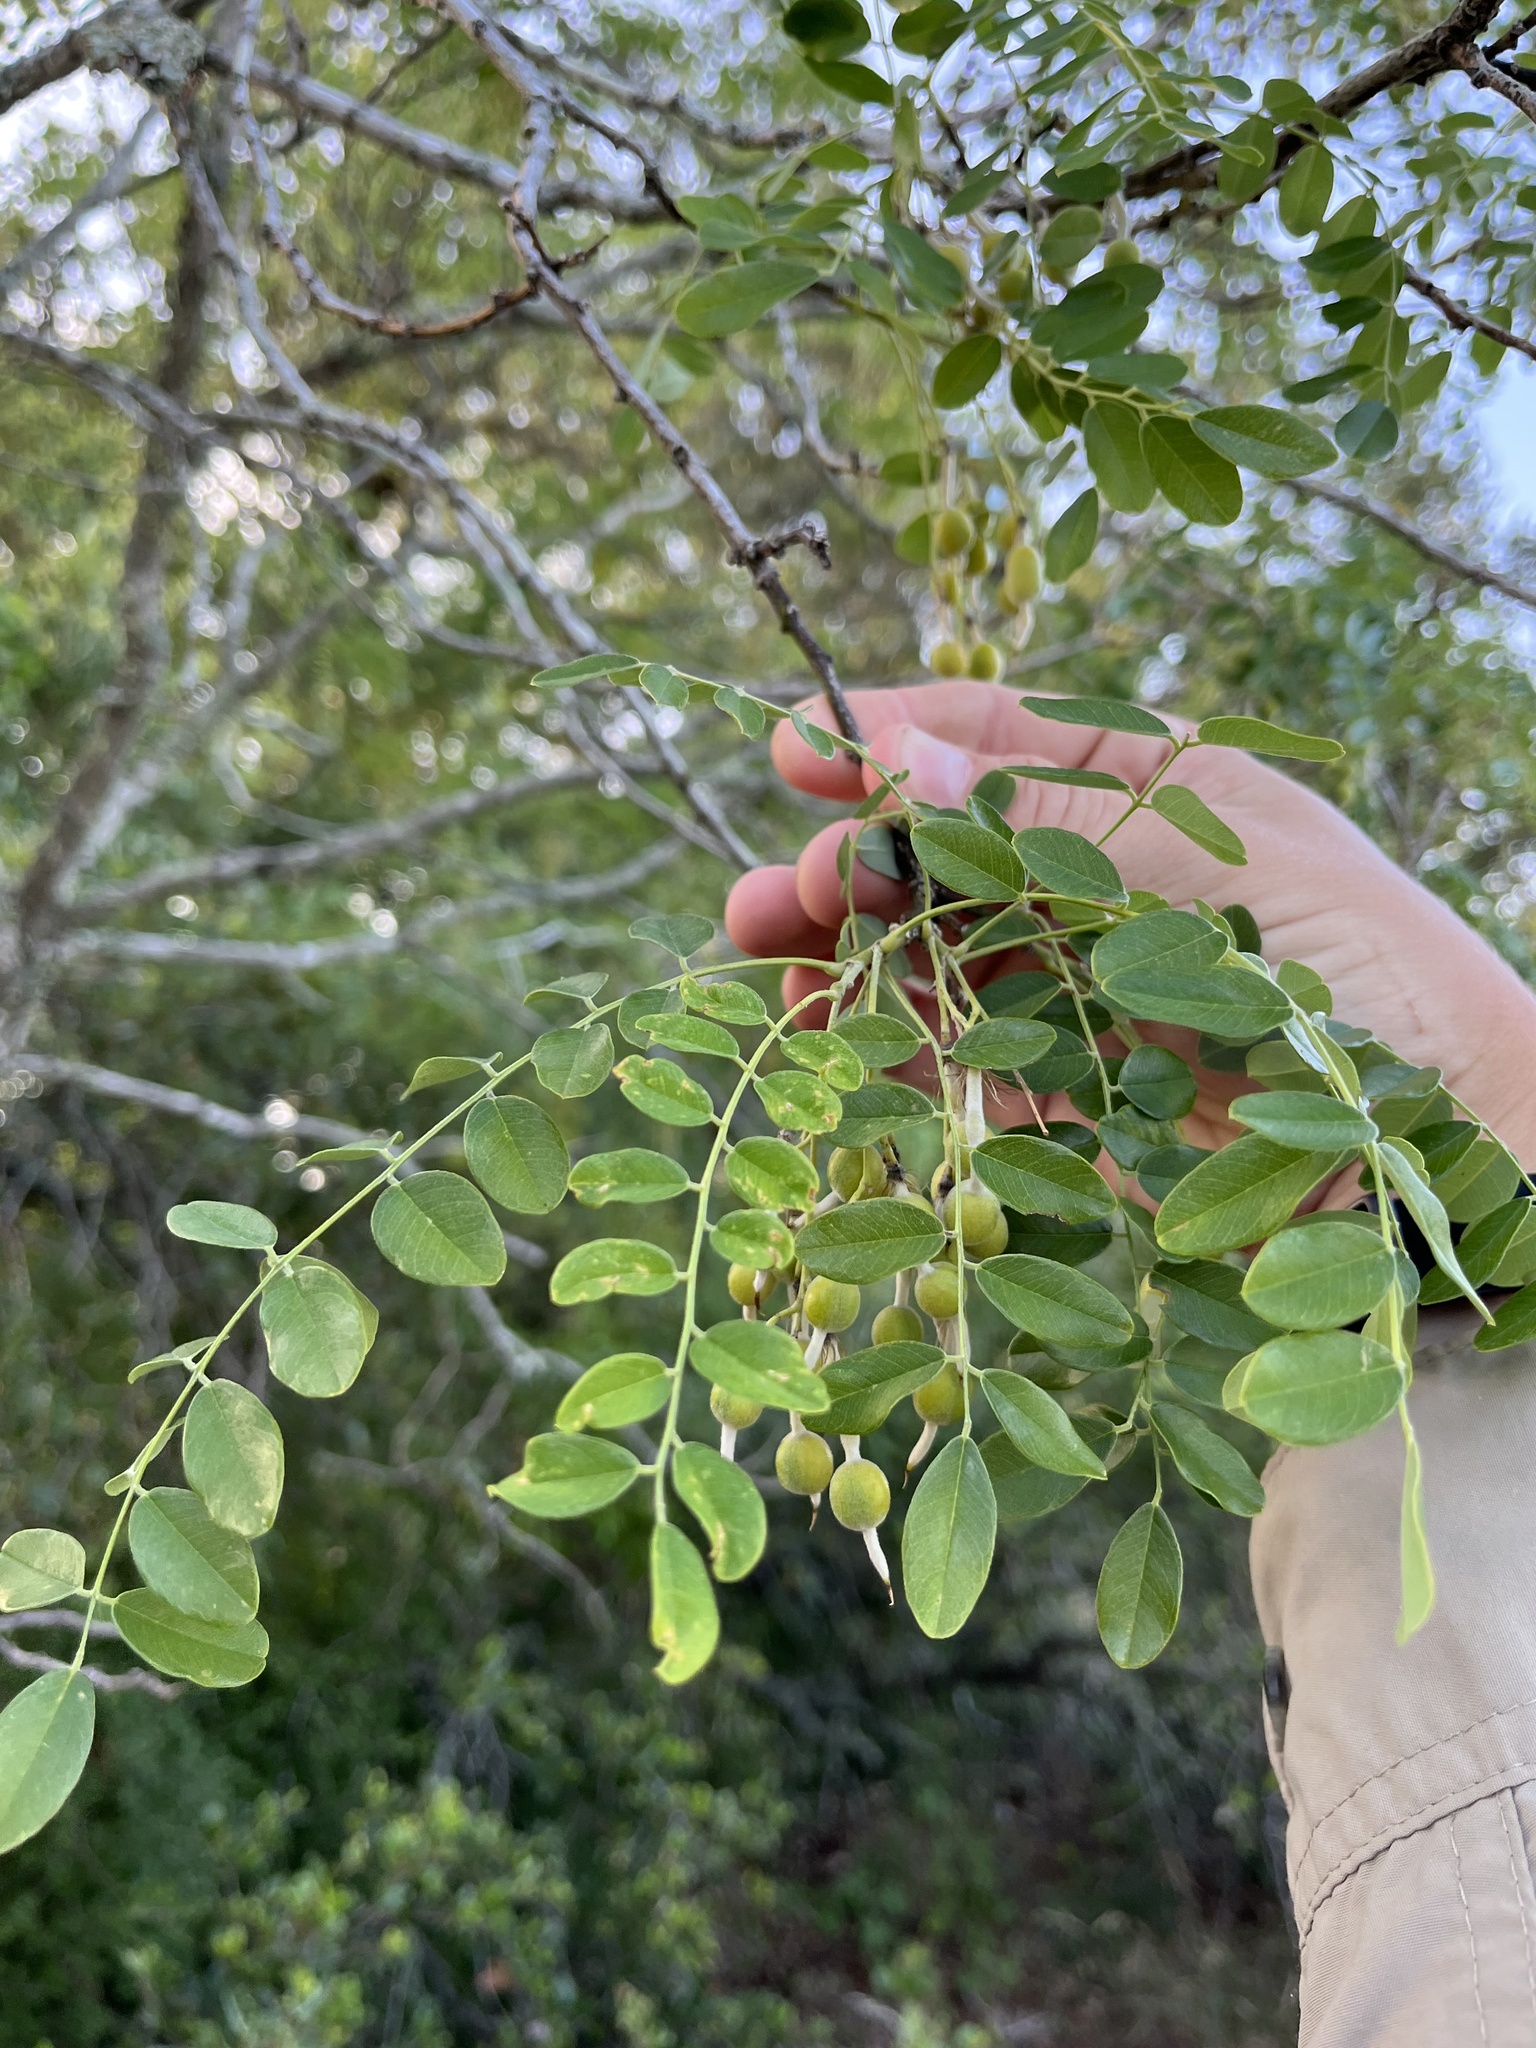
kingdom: Plantae
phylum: Tracheophyta
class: Magnoliopsida
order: Fabales
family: Fabaceae
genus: Styphnolobium
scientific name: Styphnolobium affine
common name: Texas sophora
